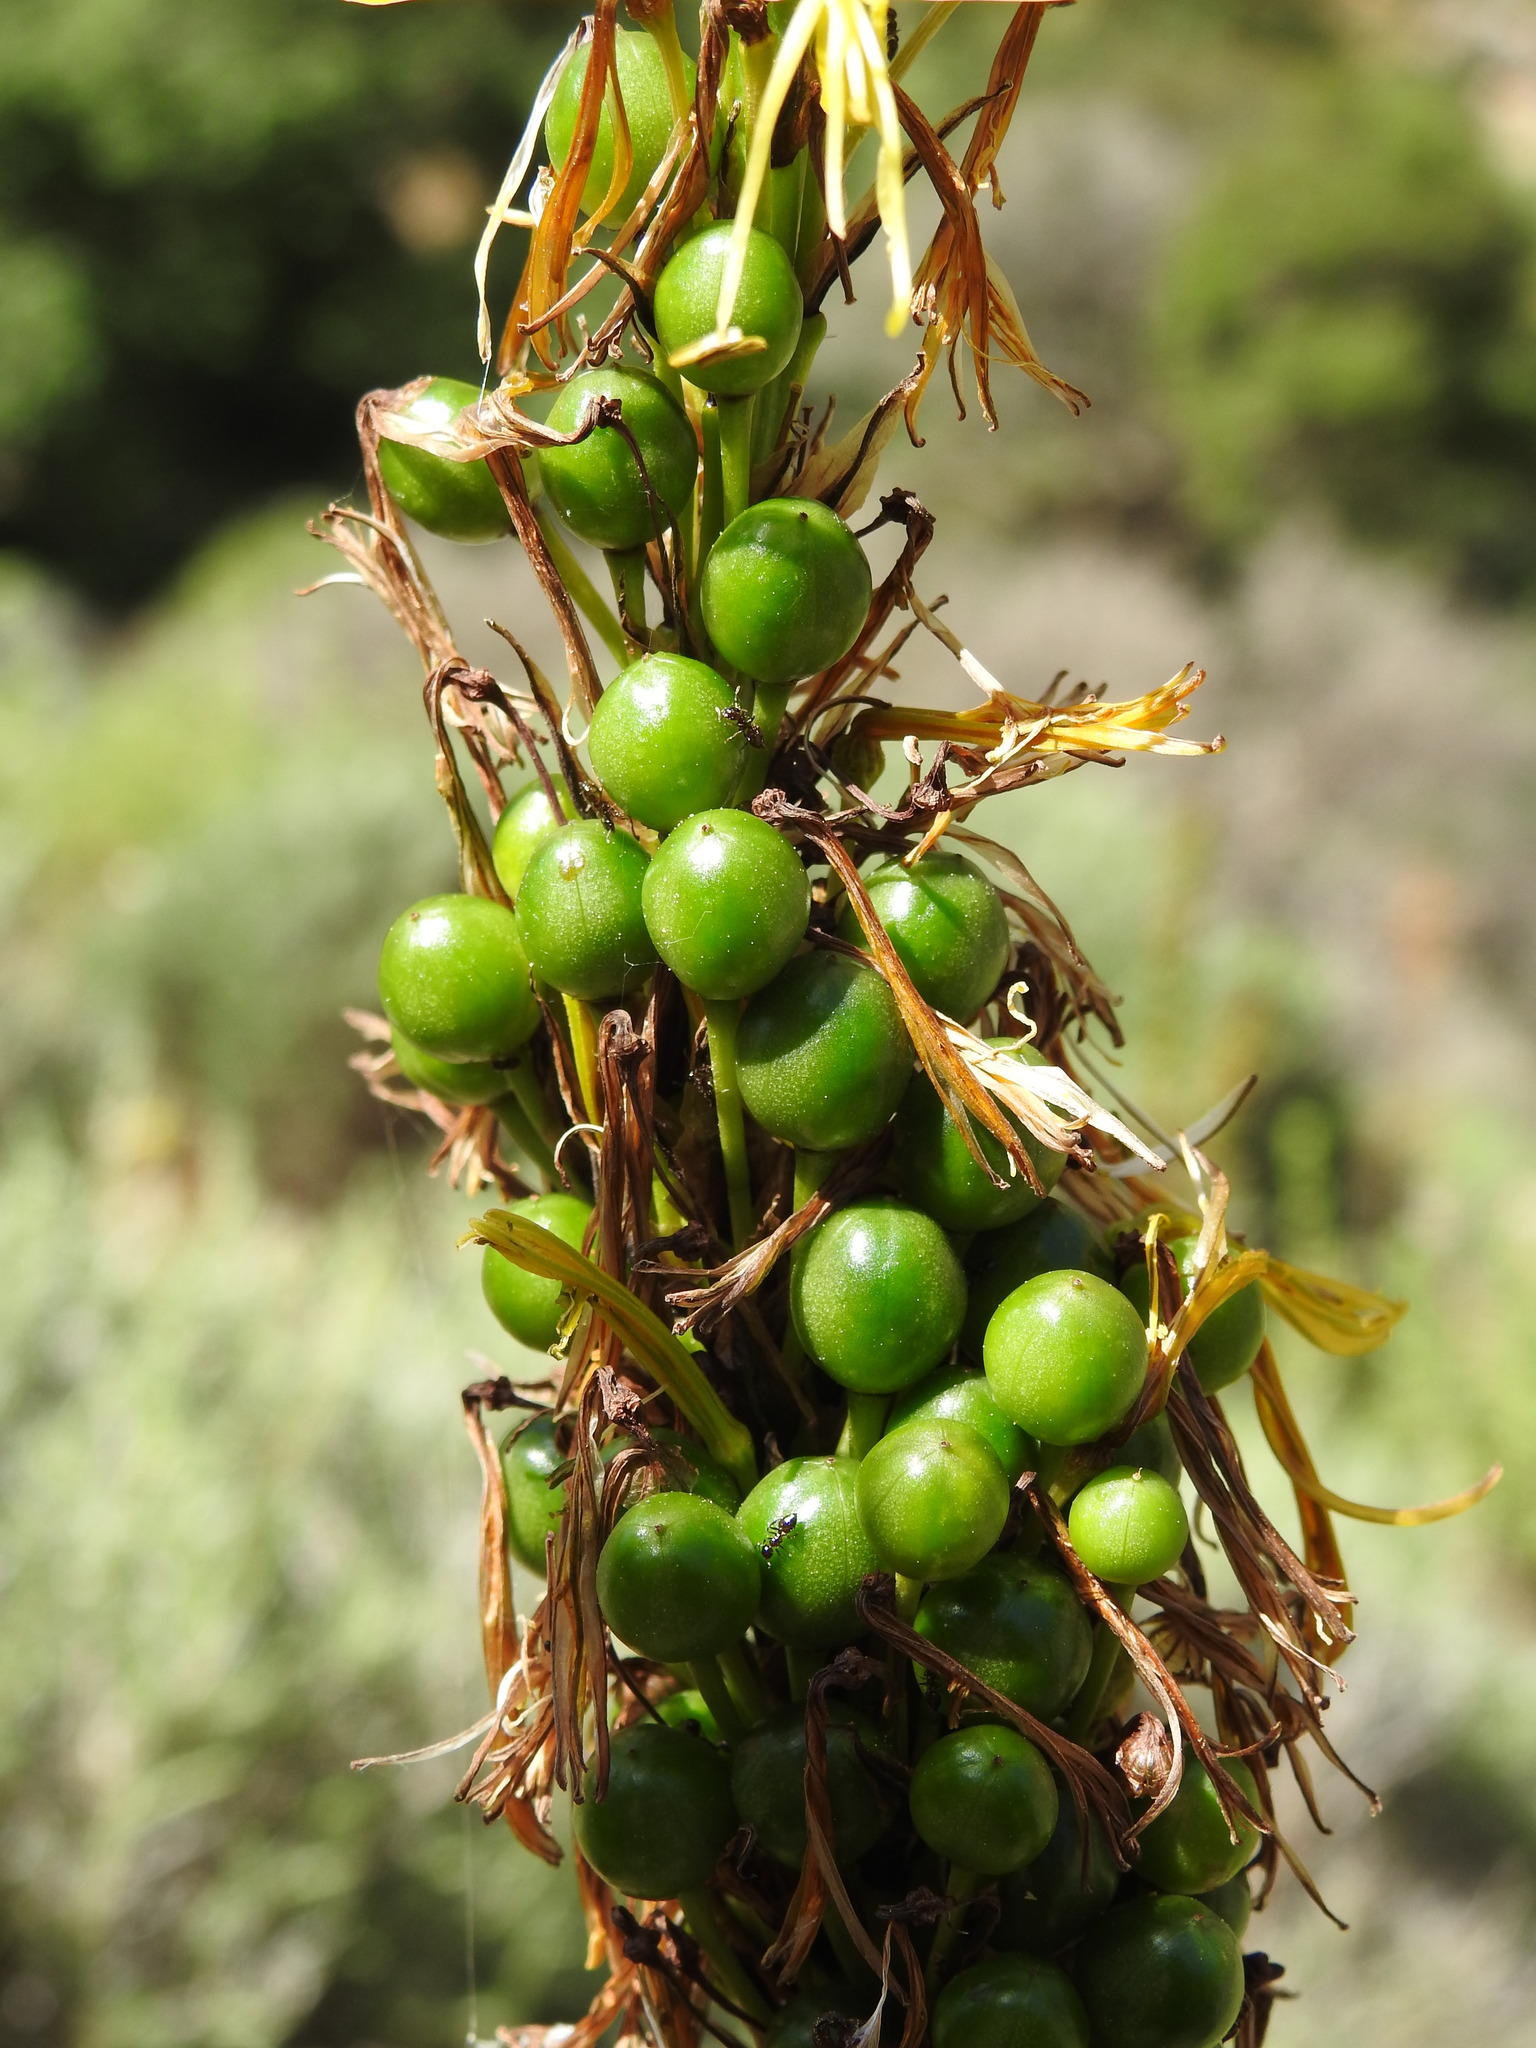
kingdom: Plantae
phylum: Tracheophyta
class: Liliopsida
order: Asparagales
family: Asphodelaceae
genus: Asphodeline
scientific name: Asphodeline lutea
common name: Yellow asphodel
